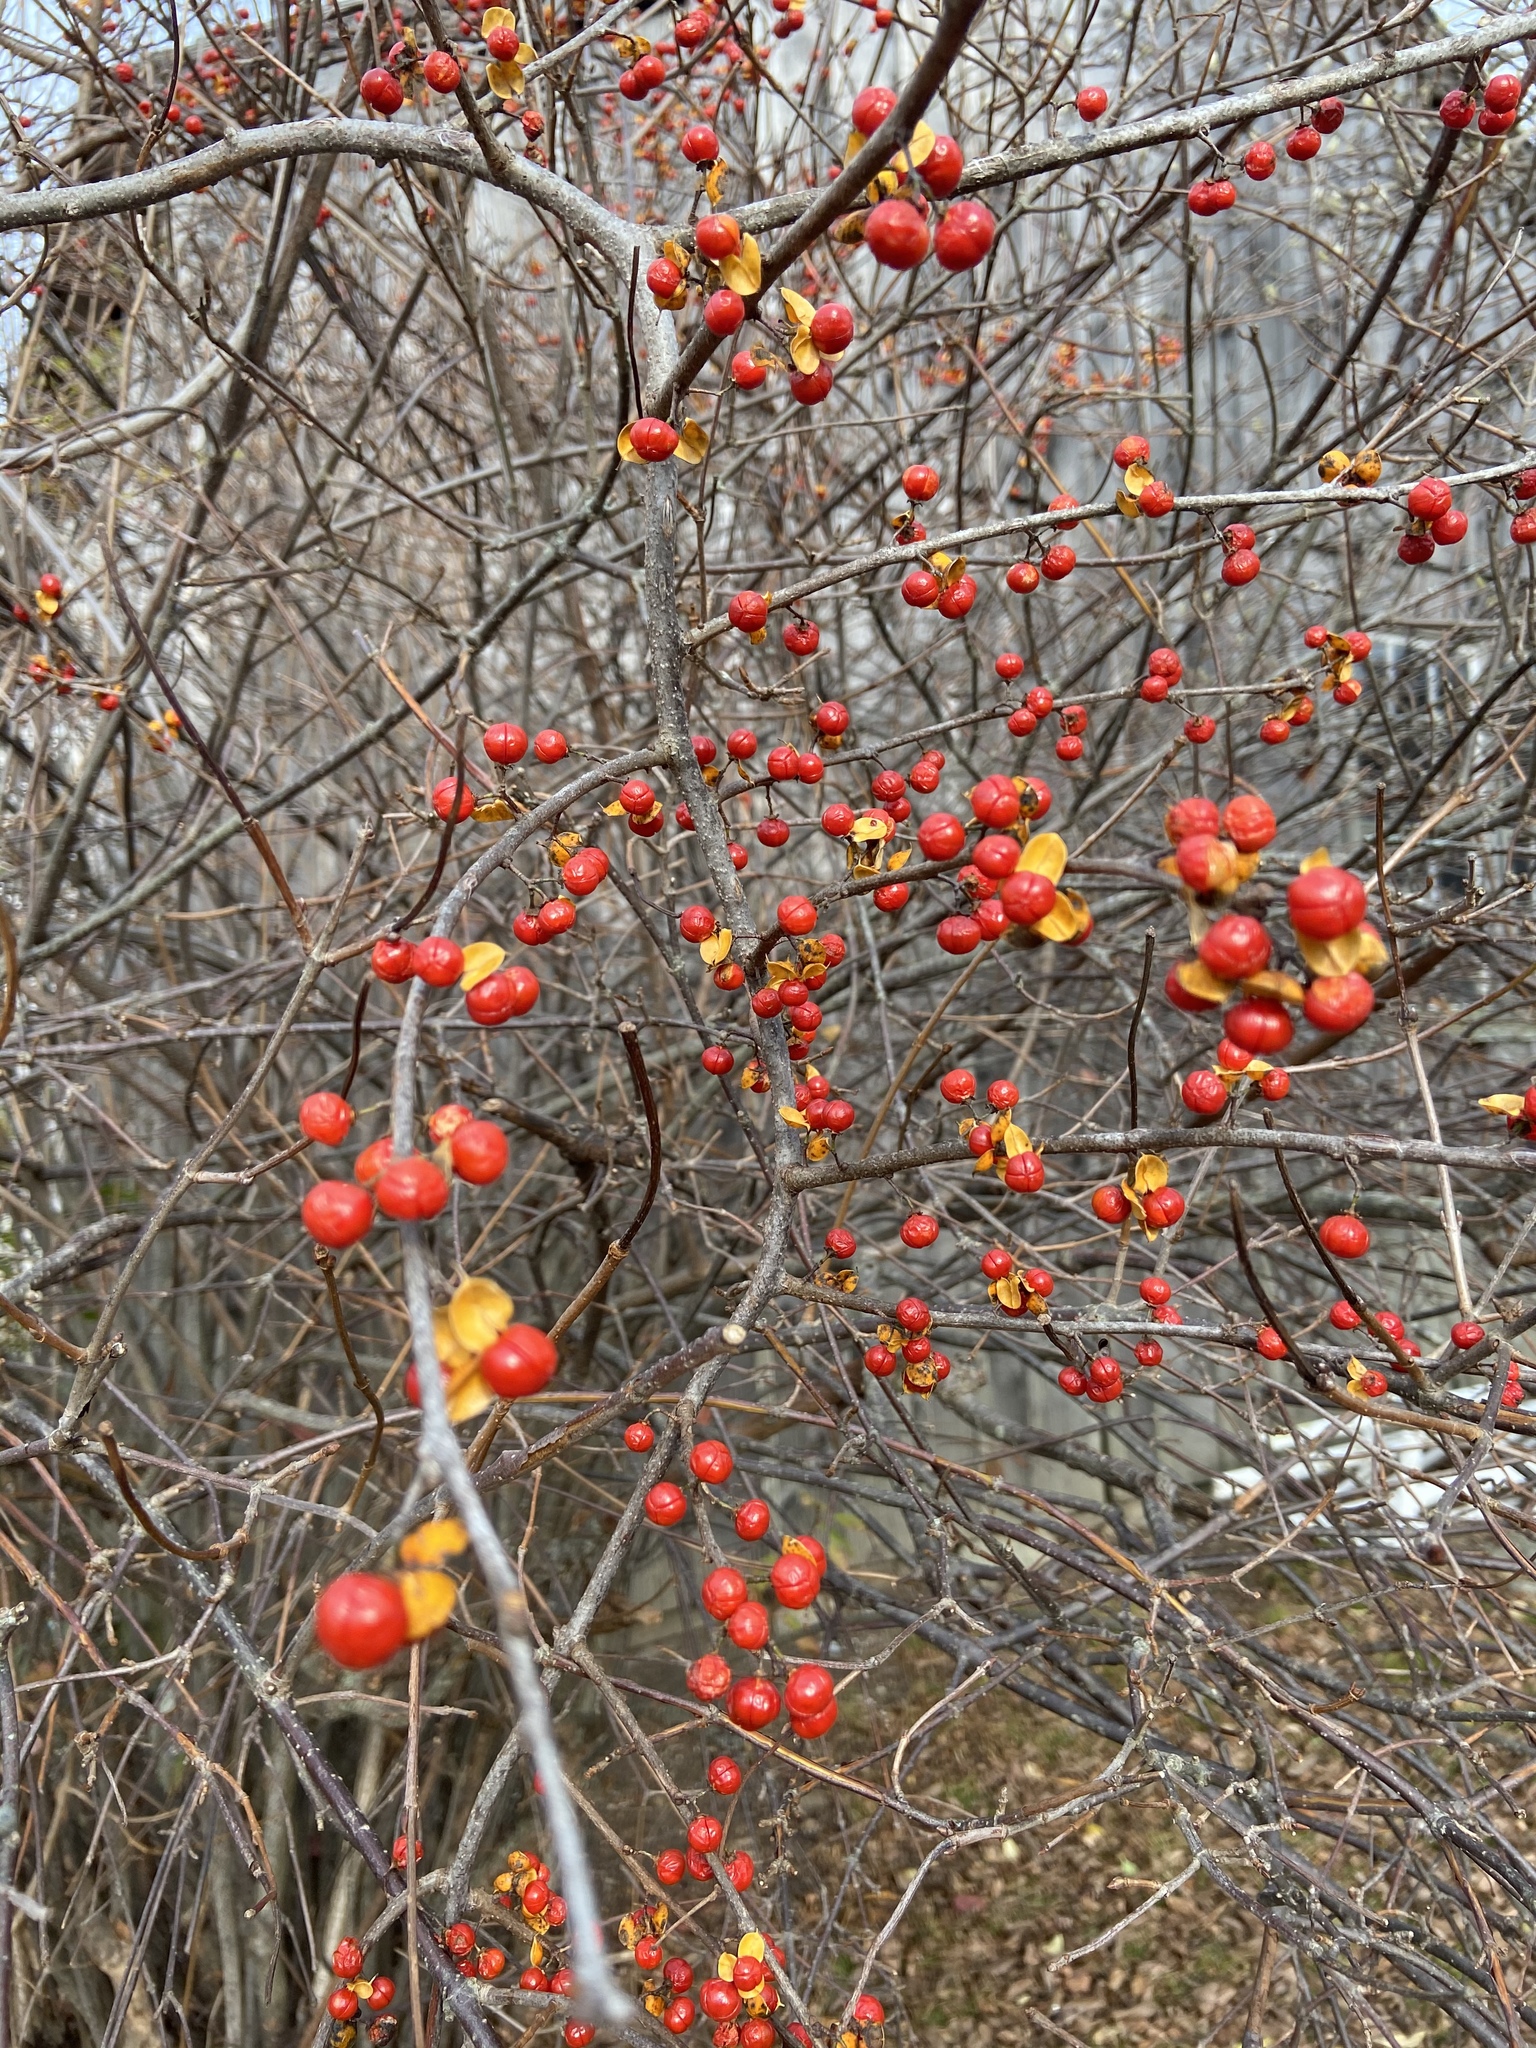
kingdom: Plantae
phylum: Tracheophyta
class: Magnoliopsida
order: Celastrales
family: Celastraceae
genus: Celastrus
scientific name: Celastrus orbiculatus
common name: Oriental bittersweet
